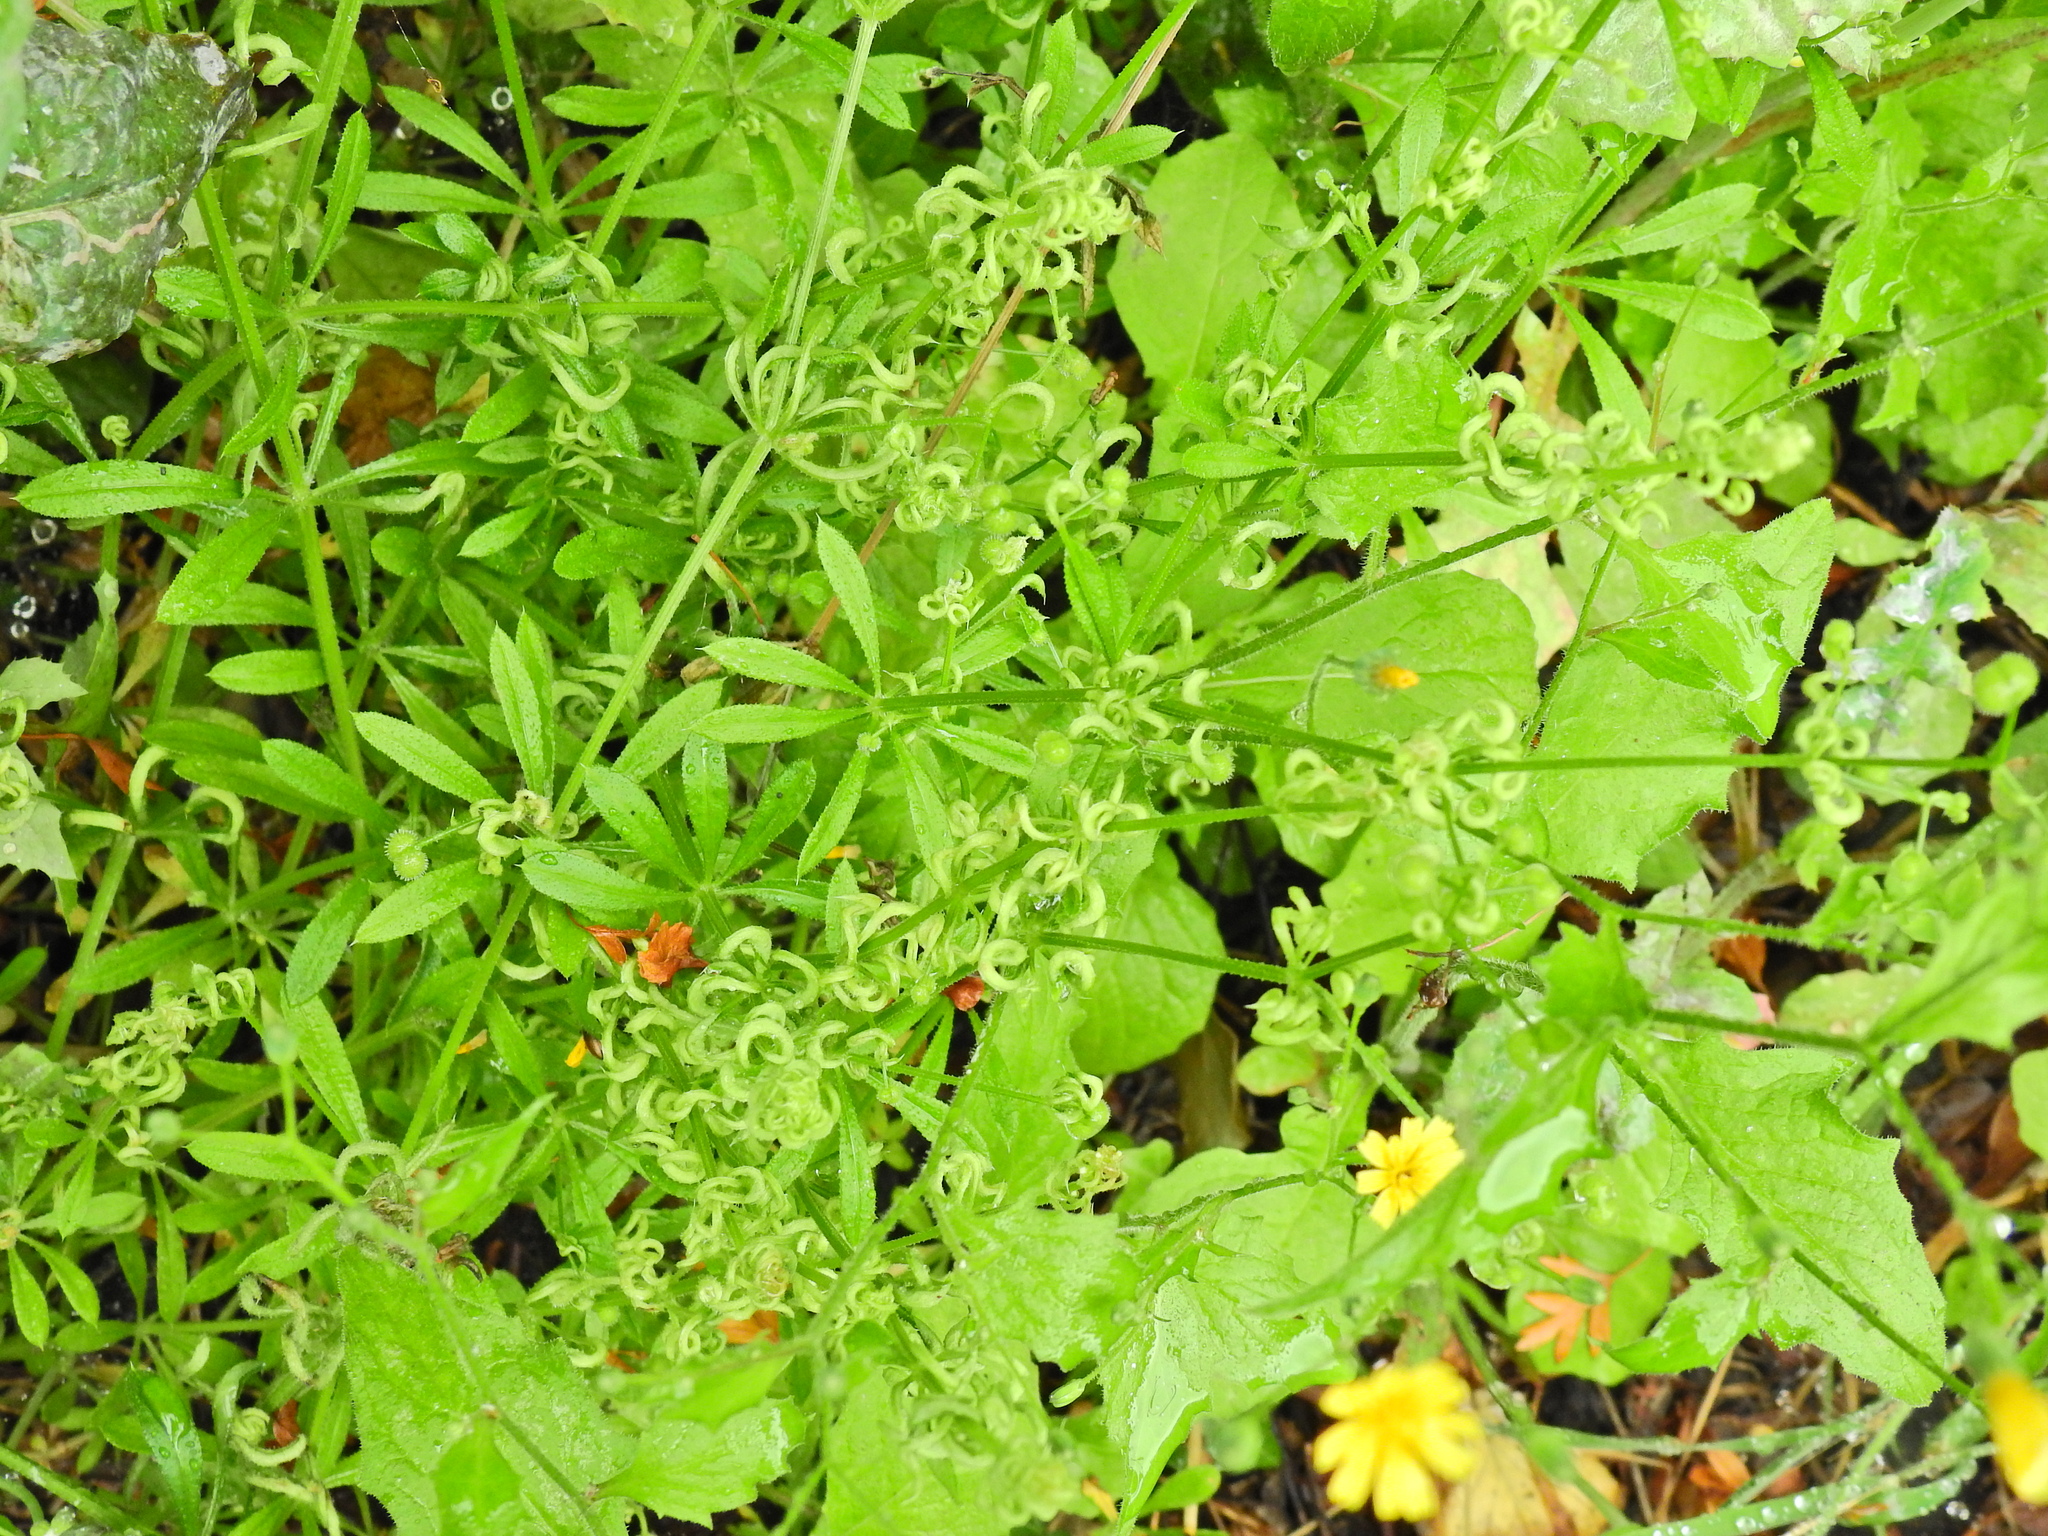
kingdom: Animalia
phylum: Arthropoda
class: Arachnida
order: Trombidiformes
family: Eriophyidae
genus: Cecidophyes
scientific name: Cecidophyes rouhollahi
